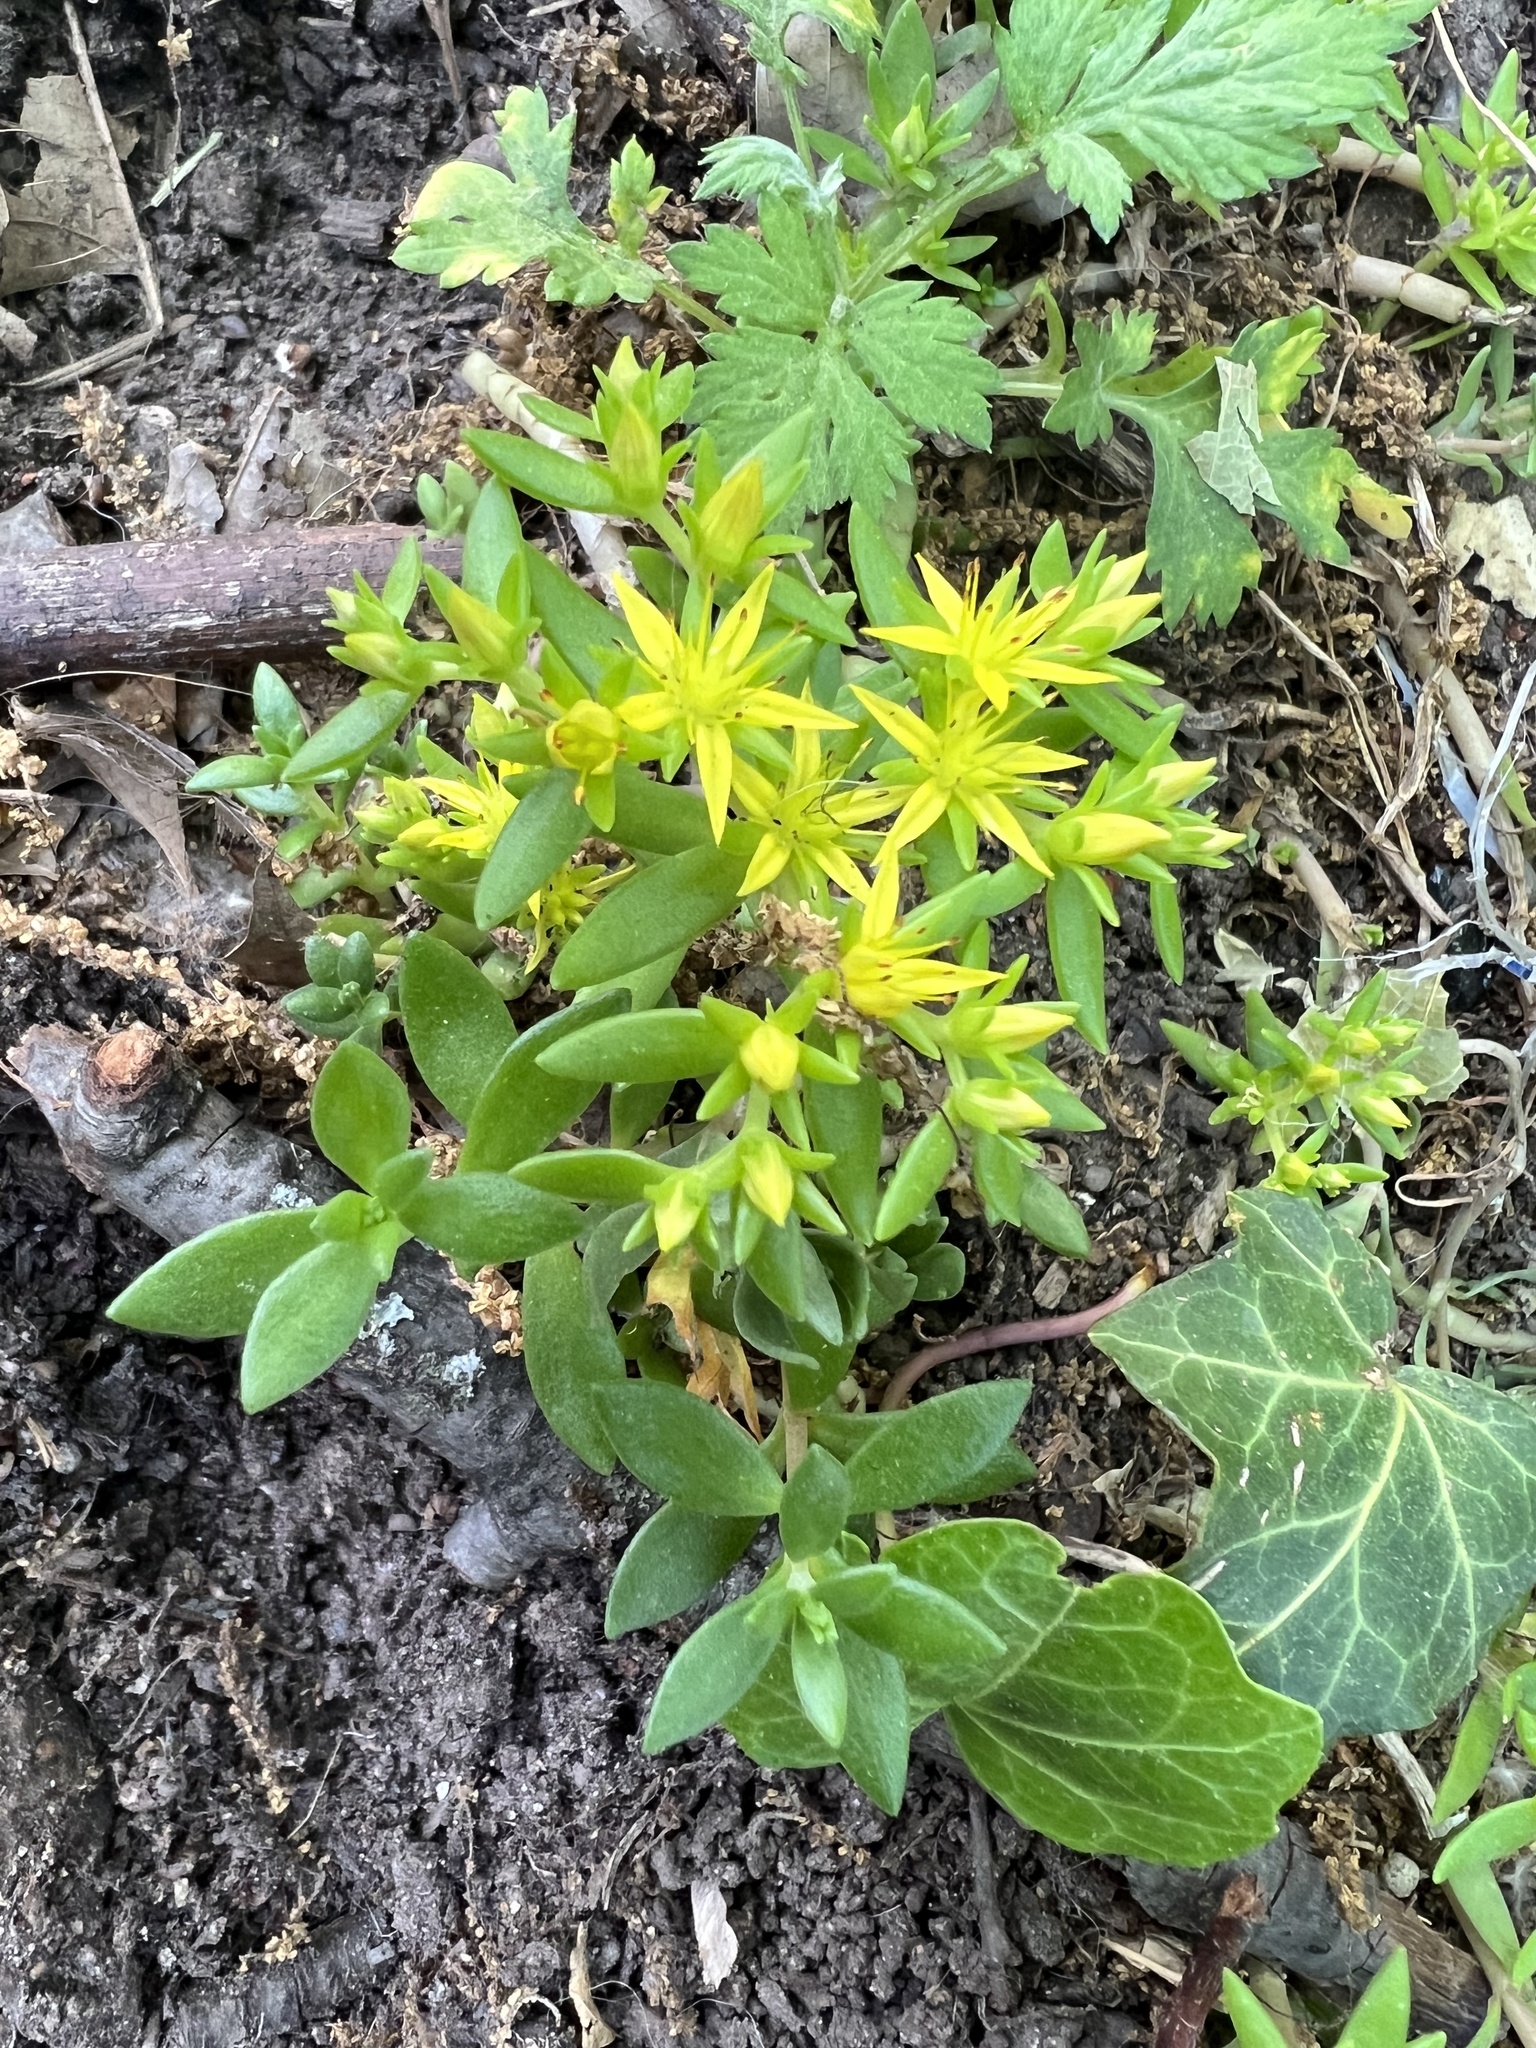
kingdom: Plantae
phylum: Tracheophyta
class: Magnoliopsida
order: Saxifragales
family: Crassulaceae
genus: Sedum
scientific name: Sedum sarmentosum
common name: Stringy stonecrop
